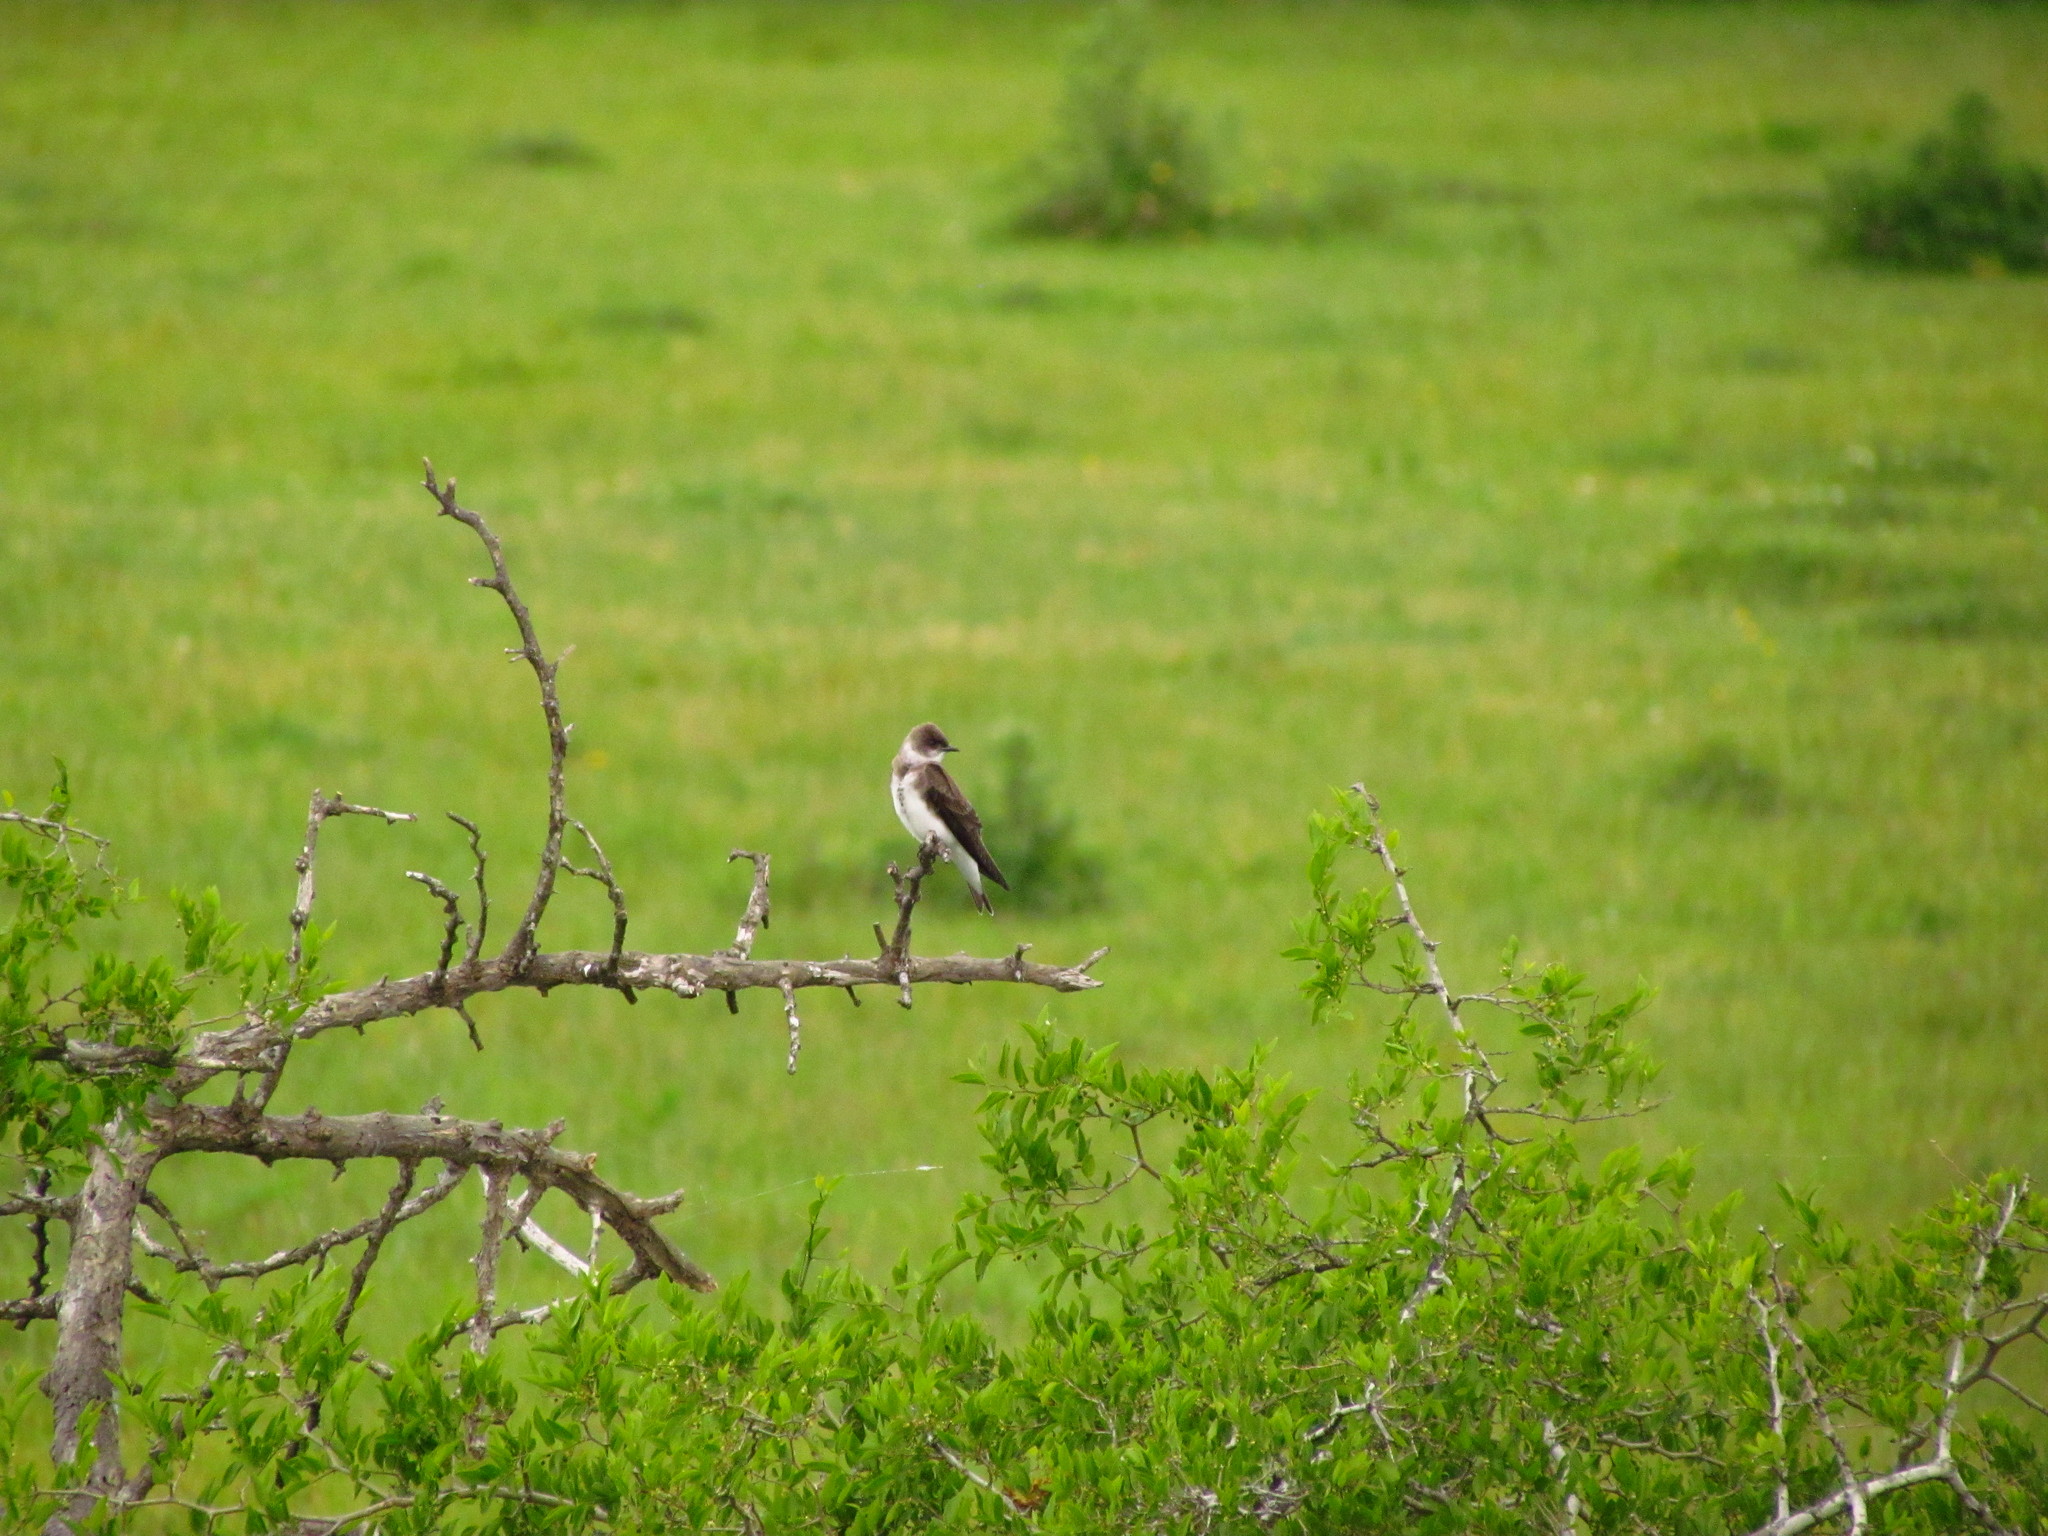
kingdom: Animalia
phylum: Chordata
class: Aves
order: Passeriformes
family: Hirundinidae
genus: Progne
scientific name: Progne tapera
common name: Brown-chested martin
